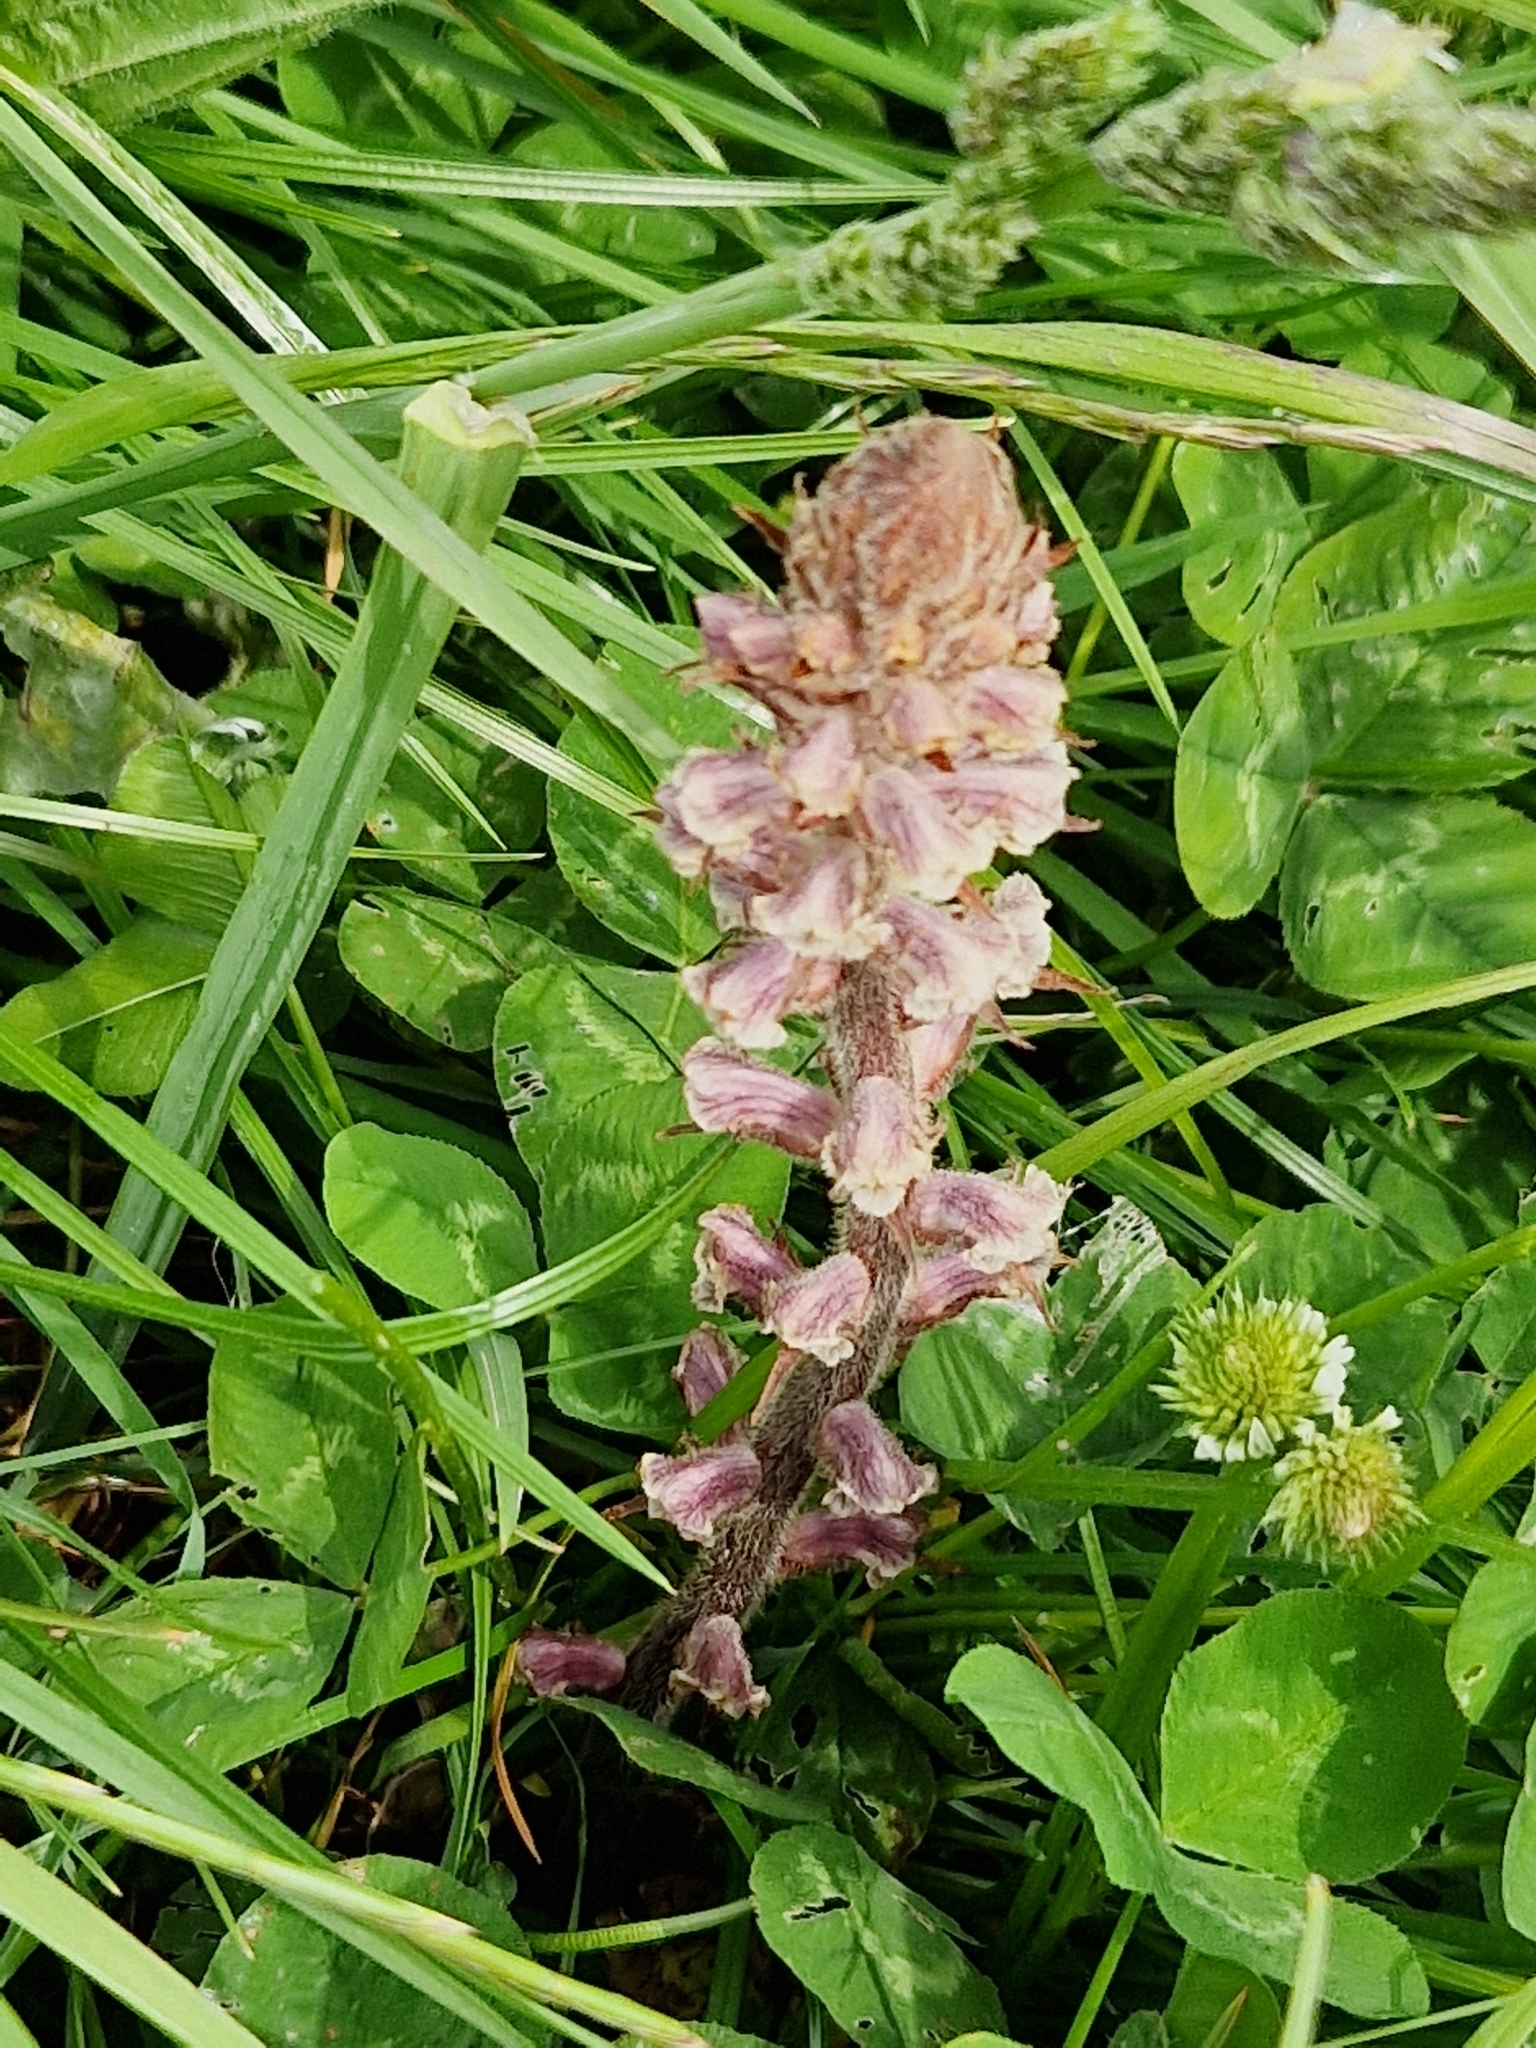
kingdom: Plantae
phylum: Tracheophyta
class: Magnoliopsida
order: Lamiales
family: Orobanchaceae
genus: Orobanche
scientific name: Orobanche minor
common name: Common broomrape
